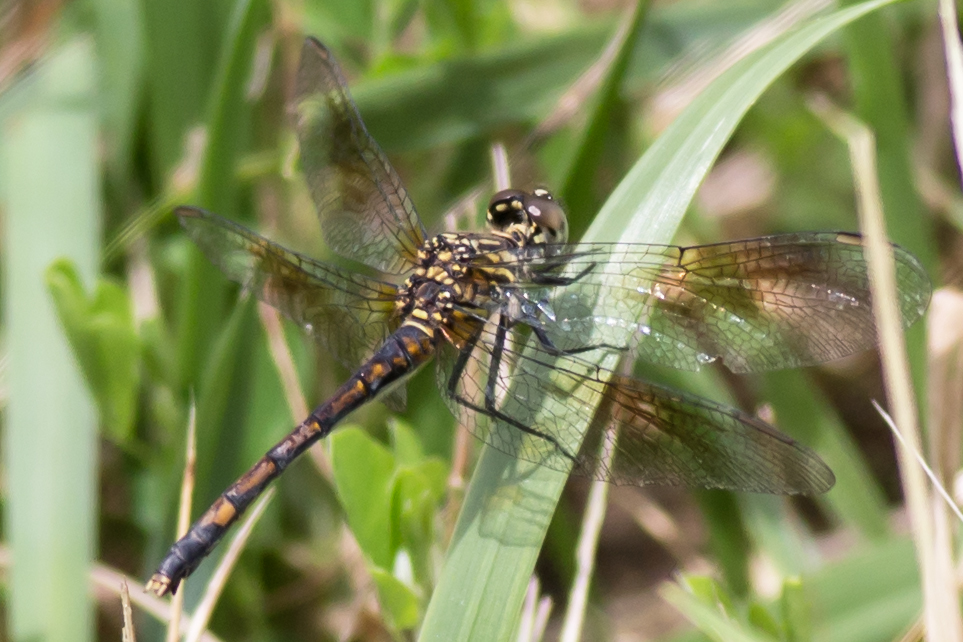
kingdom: Animalia
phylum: Arthropoda
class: Insecta
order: Odonata
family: Libellulidae
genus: Erythrodiplax
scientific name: Erythrodiplax berenice
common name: Seaside dragonlet
